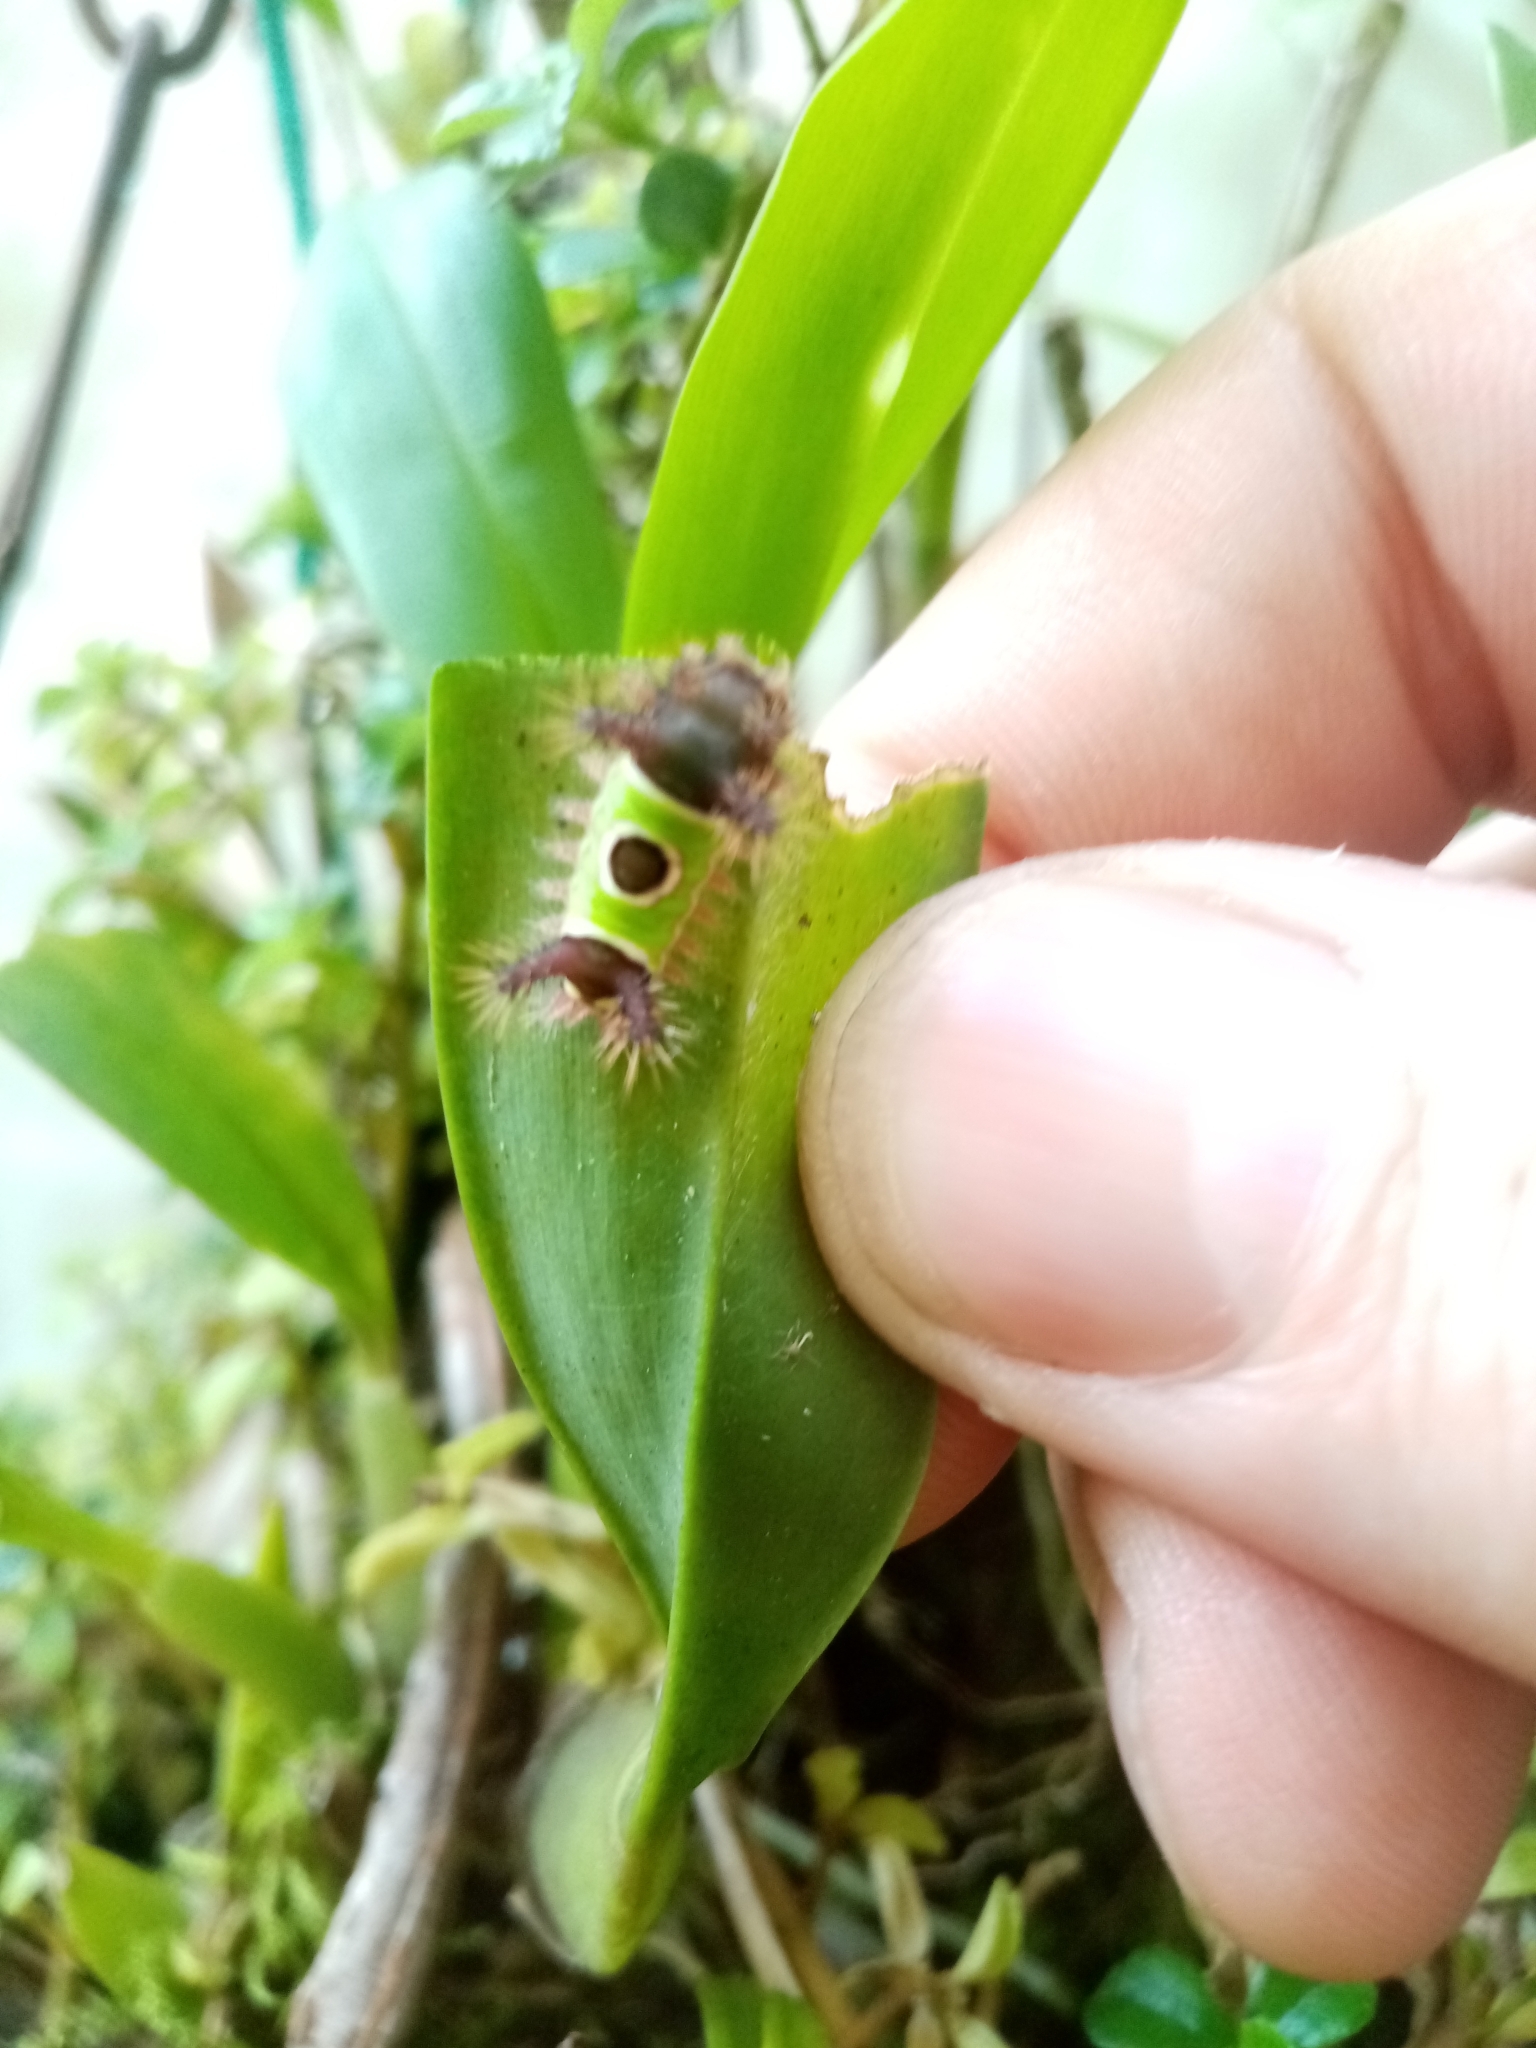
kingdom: Animalia
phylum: Arthropoda
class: Insecta
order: Lepidoptera
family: Limacodidae
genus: Acharia
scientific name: Acharia hyperoche
